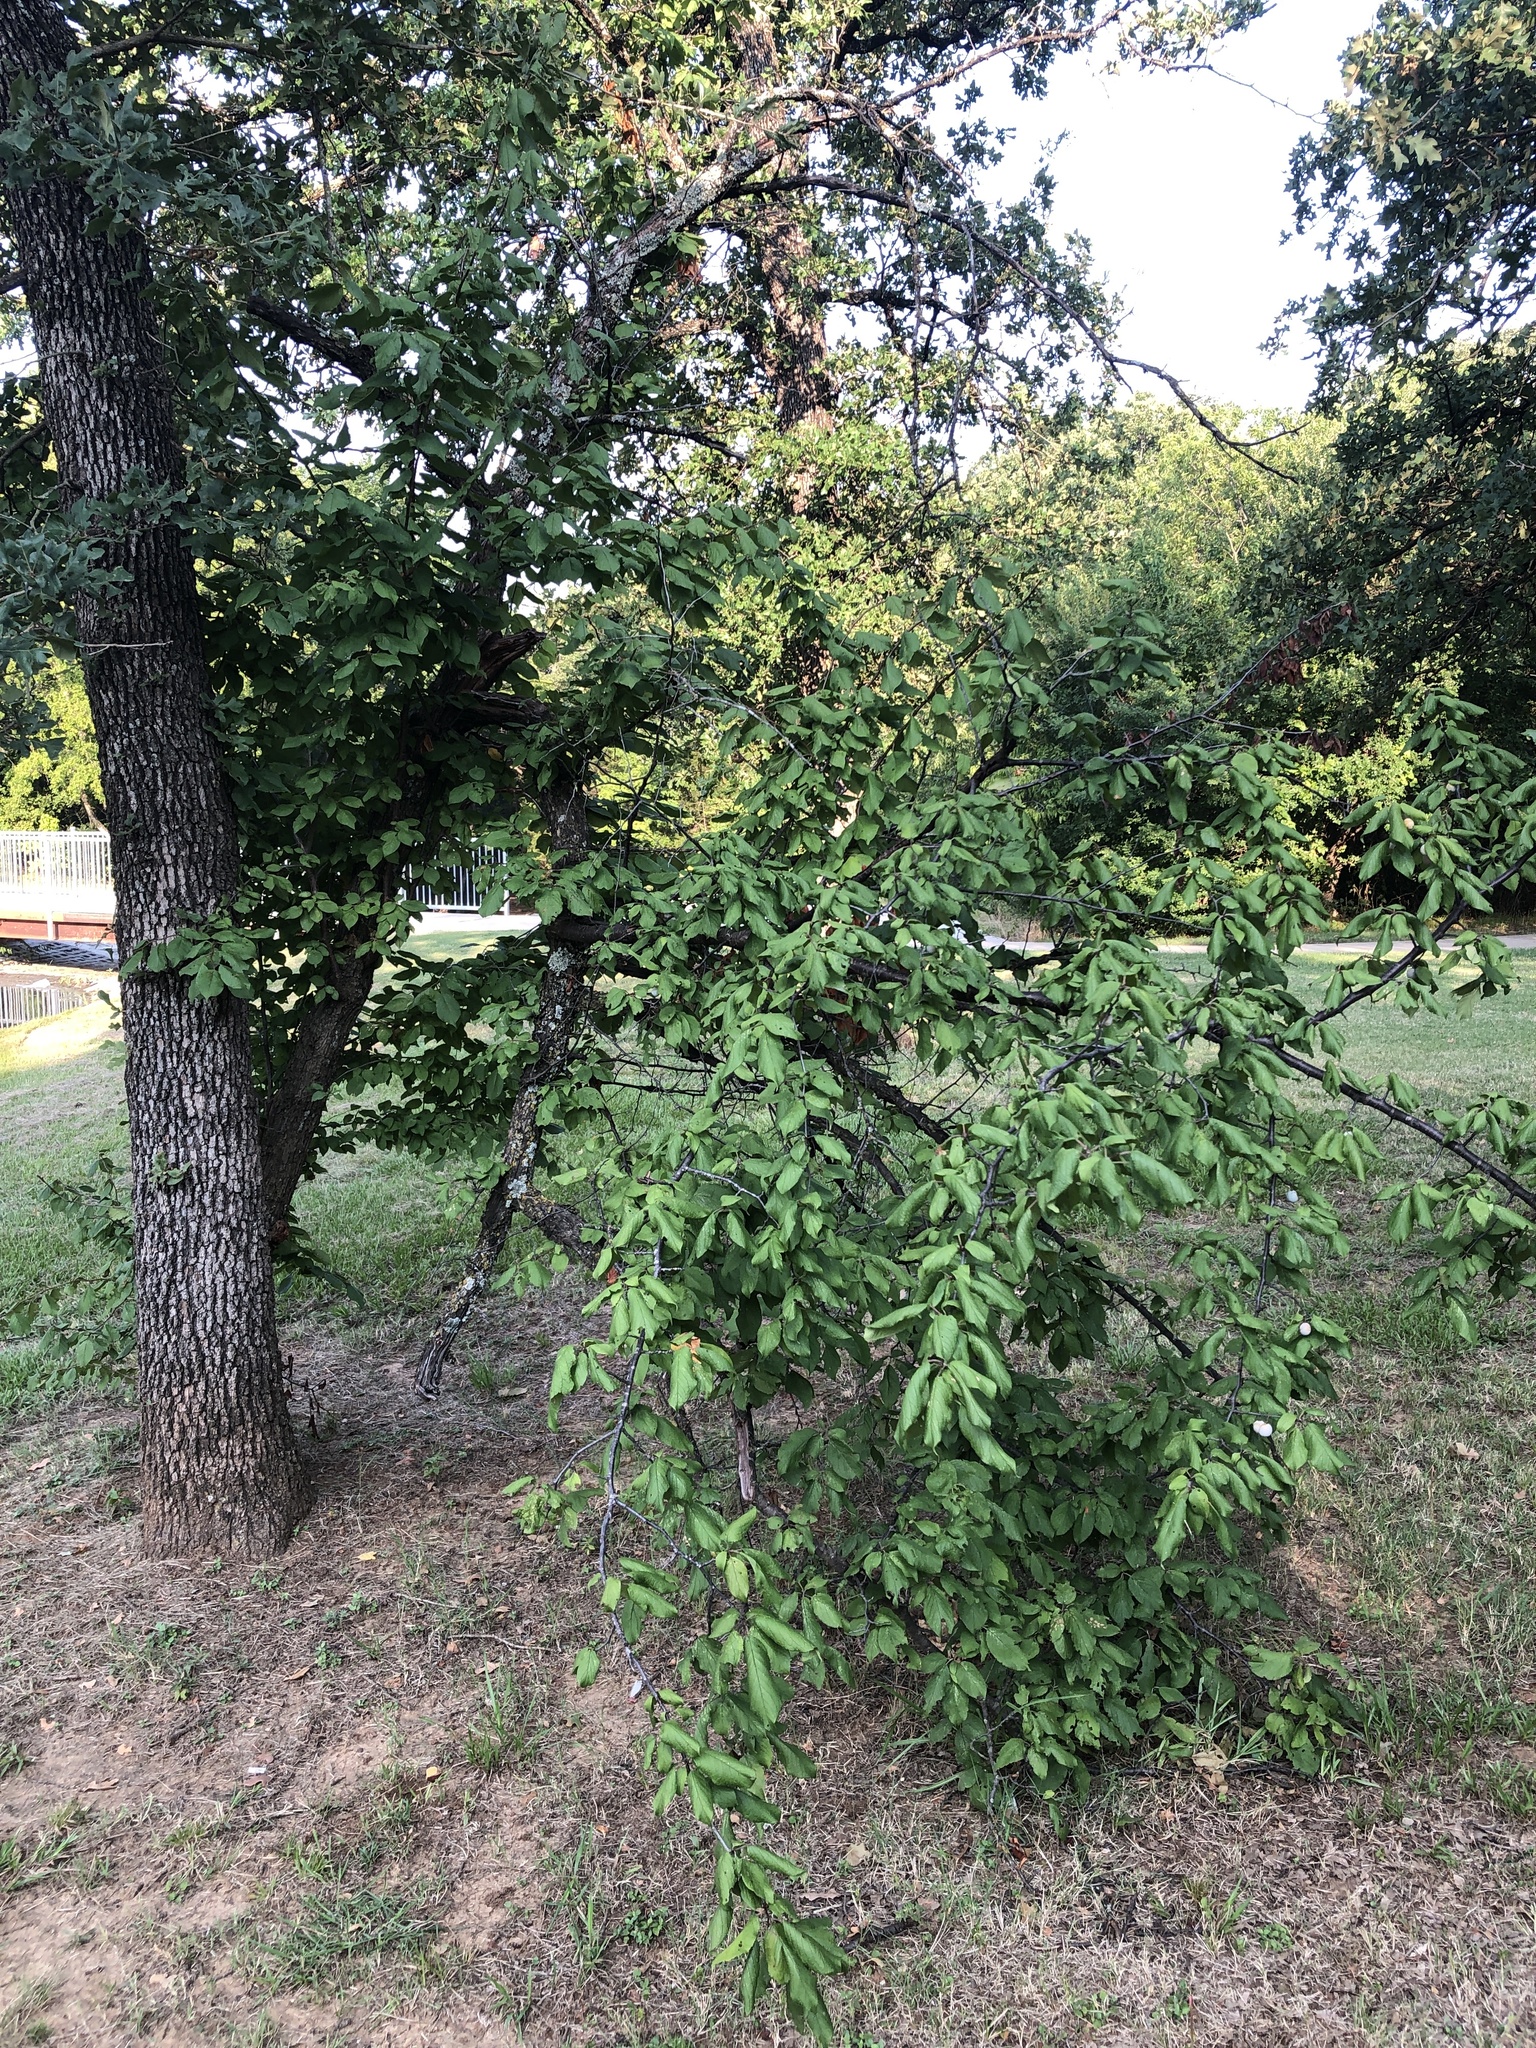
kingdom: Plantae
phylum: Tracheophyta
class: Magnoliopsida
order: Rosales
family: Rosaceae
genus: Prunus
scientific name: Prunus mexicana
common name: Mexican plum
